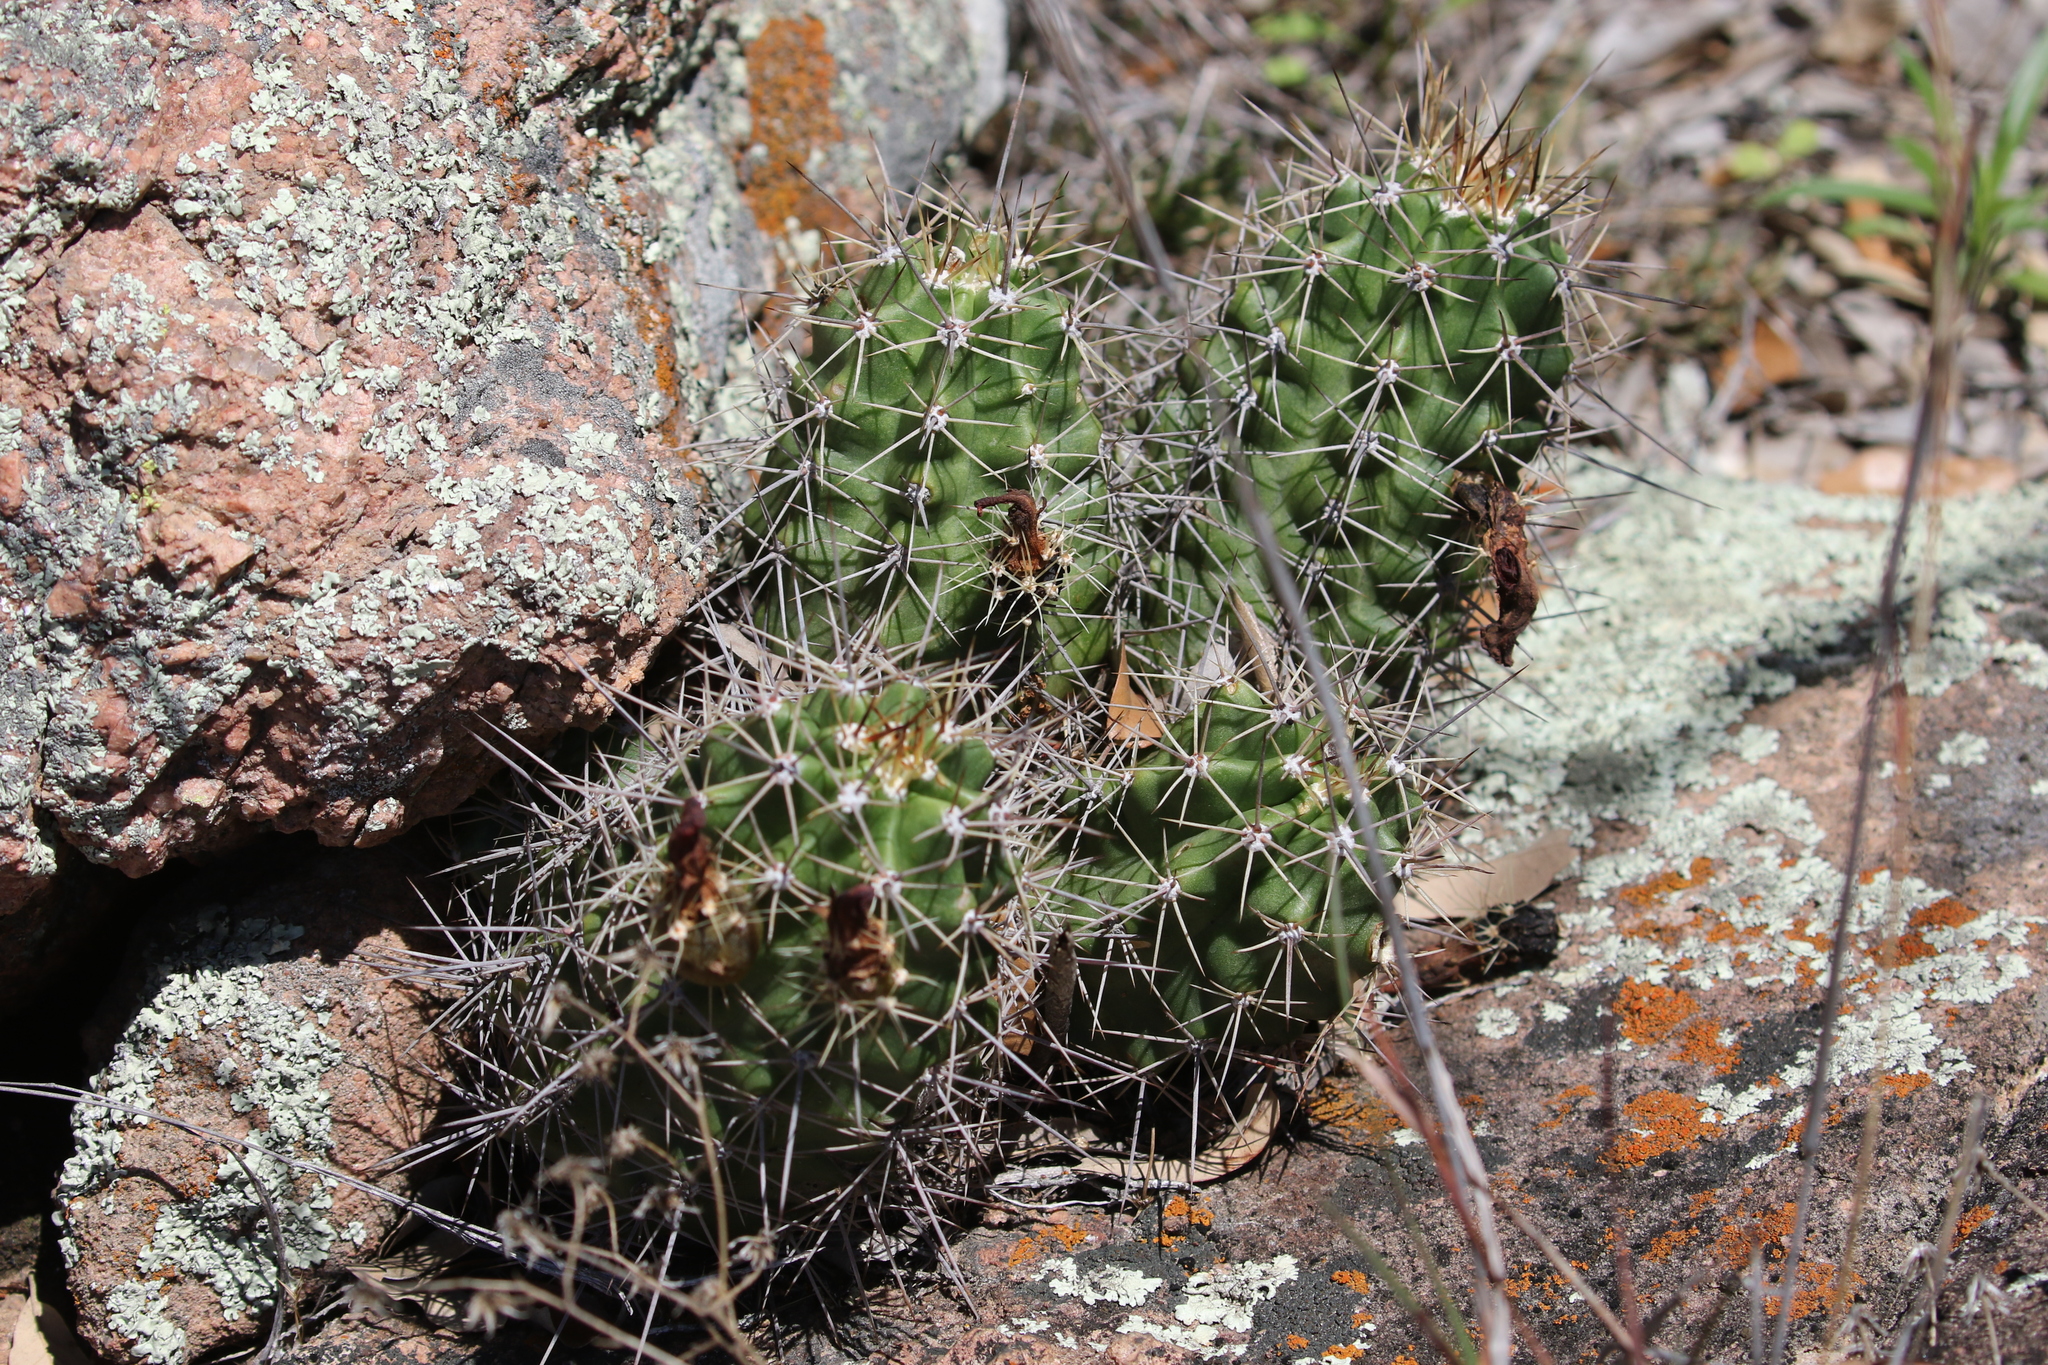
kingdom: Plantae
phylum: Tracheophyta
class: Magnoliopsida
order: Caryophyllales
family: Cactaceae
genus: Echinocereus
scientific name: Echinocereus coccineus
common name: Scarlet hedgehog cactus
